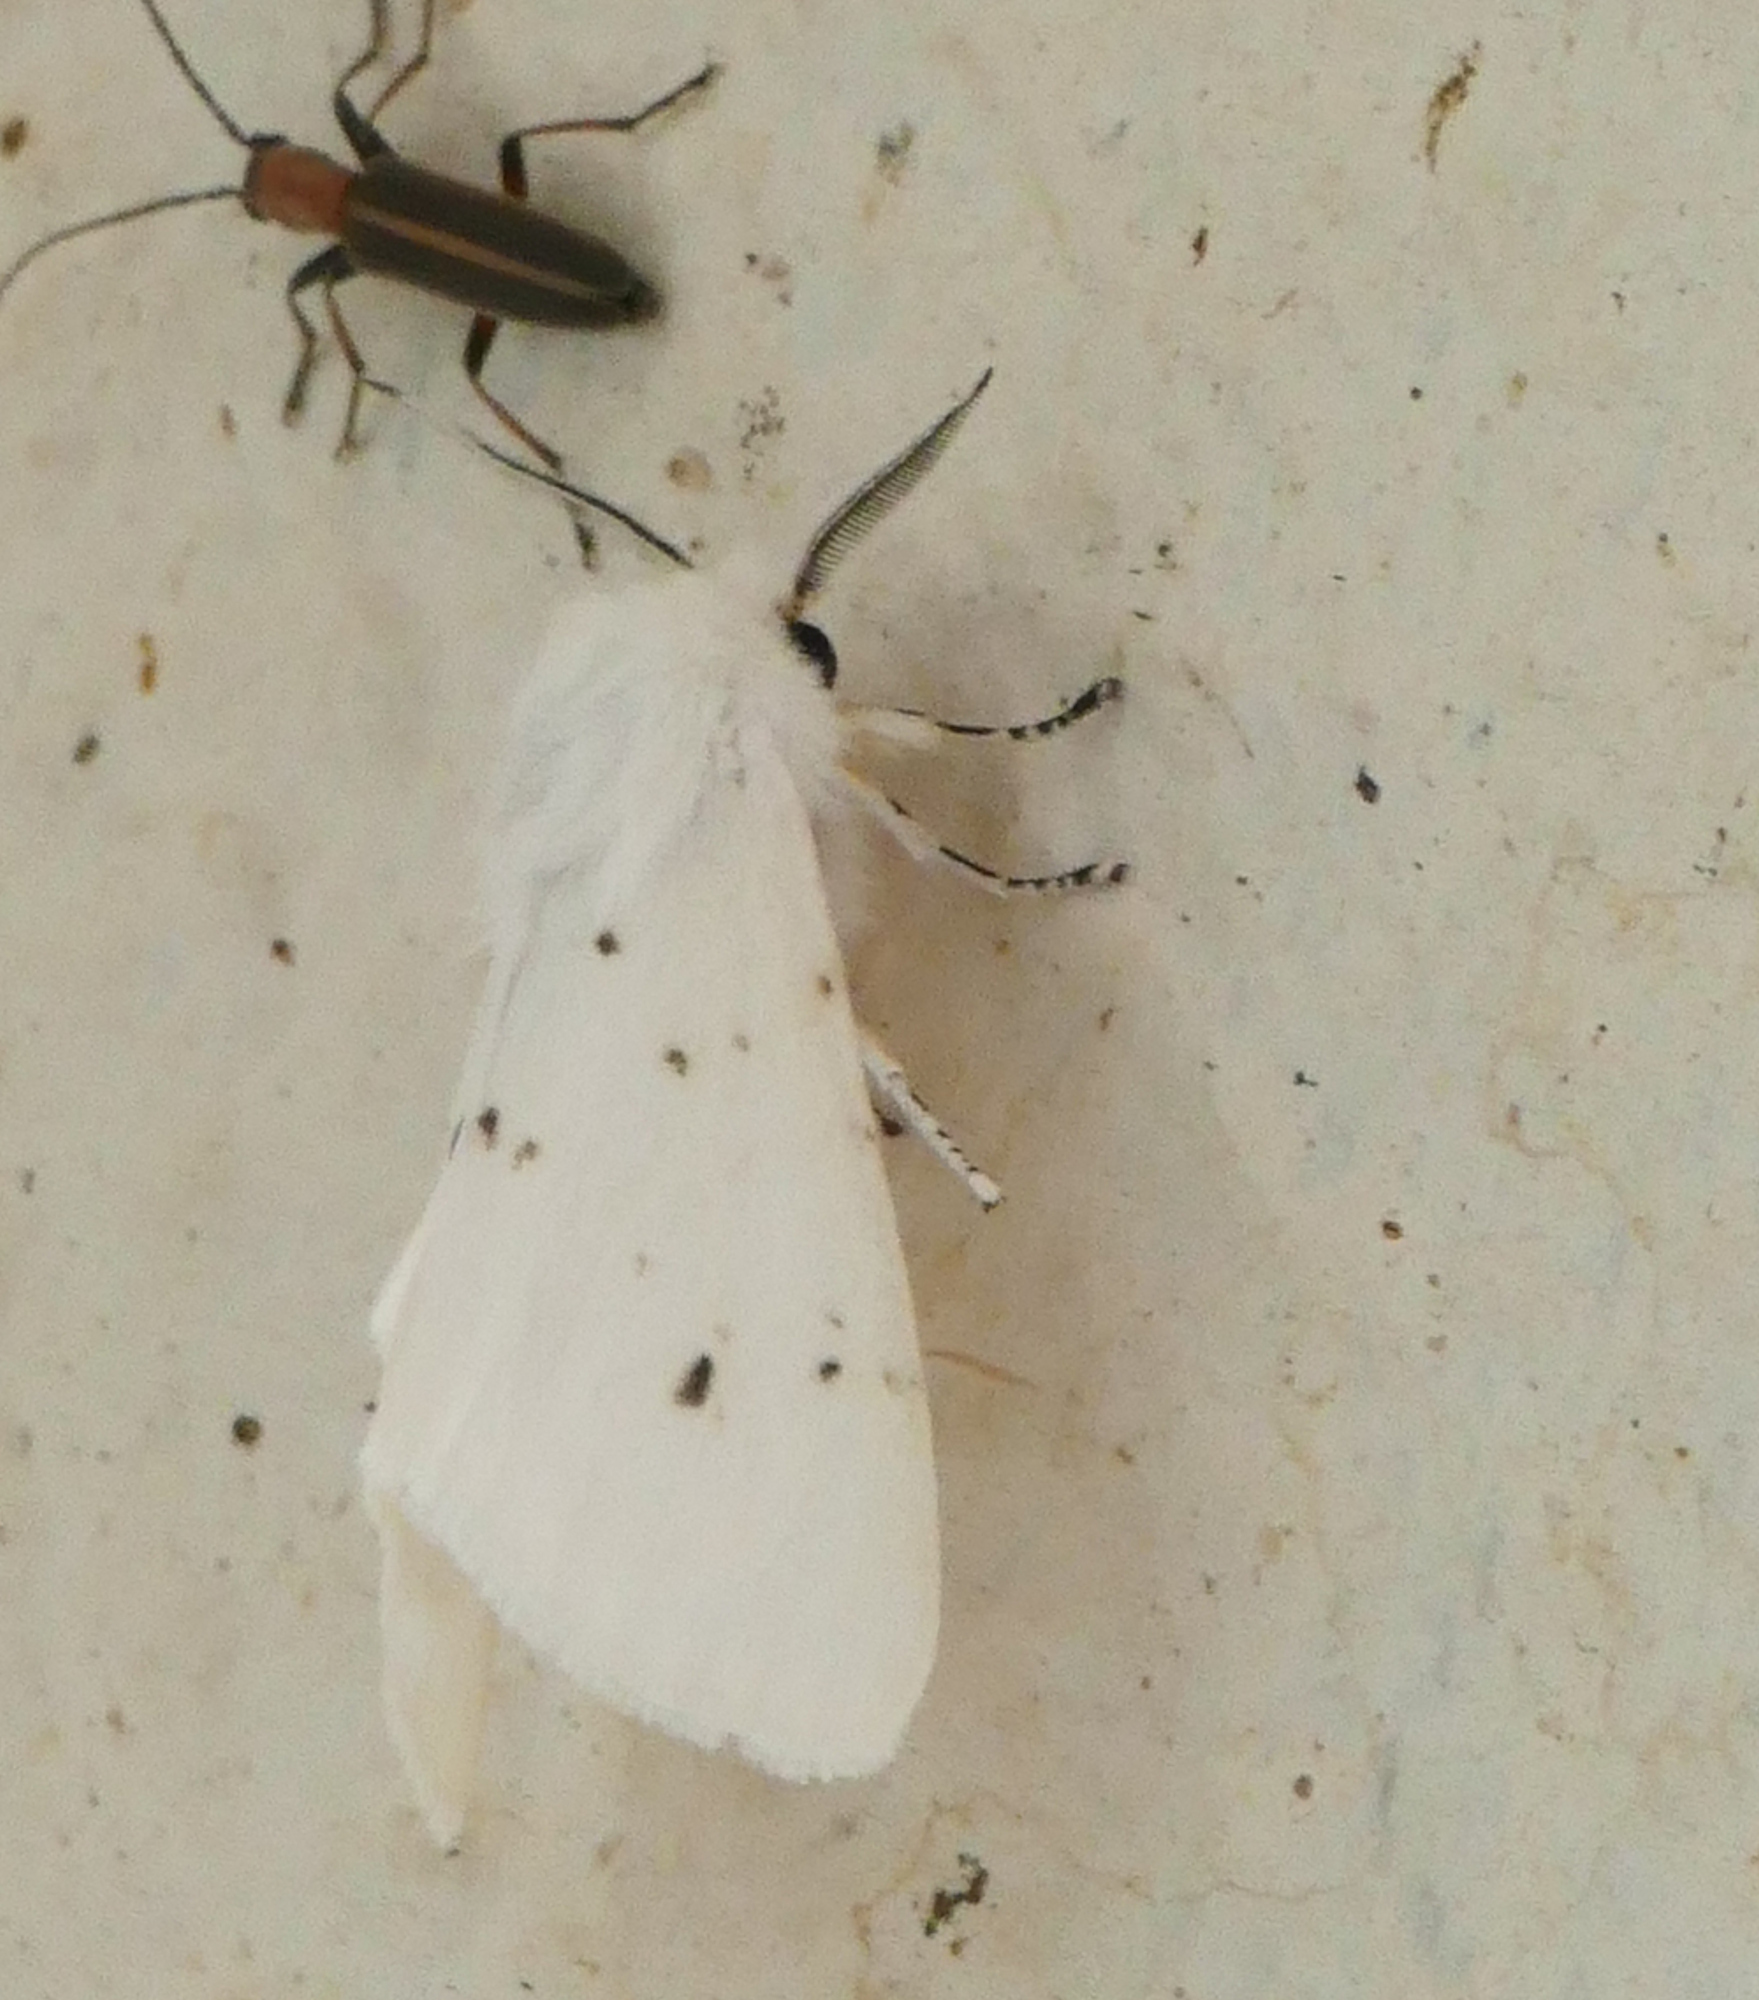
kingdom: Animalia
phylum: Arthropoda
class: Insecta
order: Lepidoptera
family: Erebidae
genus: Hyphantria
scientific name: Hyphantria cunea
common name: American white moth
